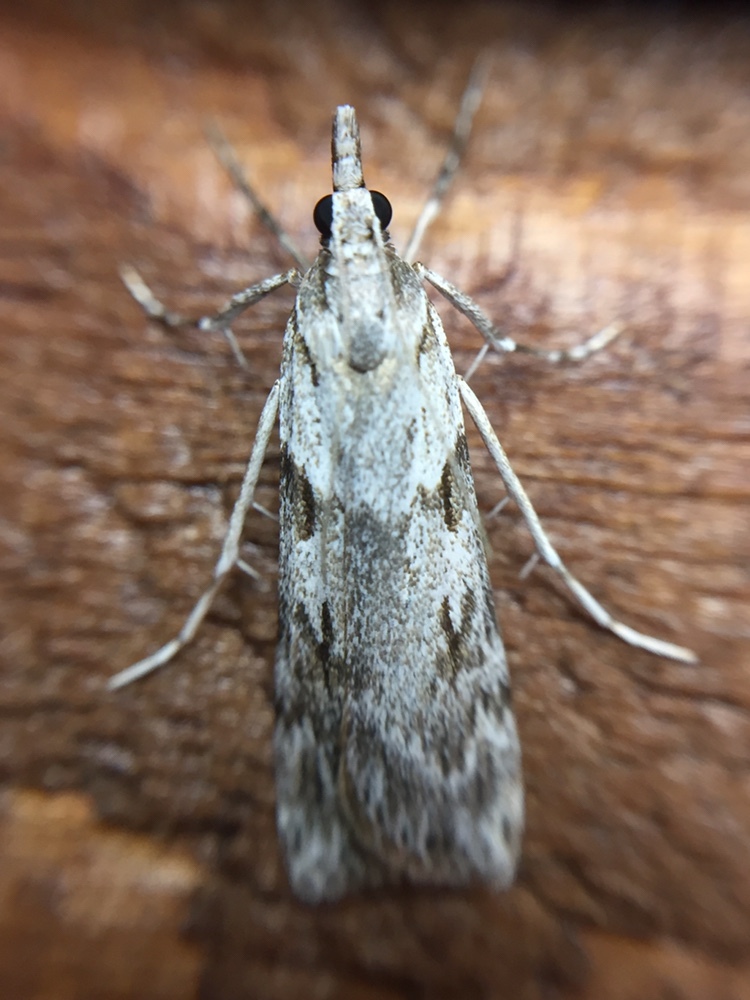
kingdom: Animalia
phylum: Arthropoda
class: Insecta
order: Lepidoptera
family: Crambidae
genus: Scoparia
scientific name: Scoparia halopis
